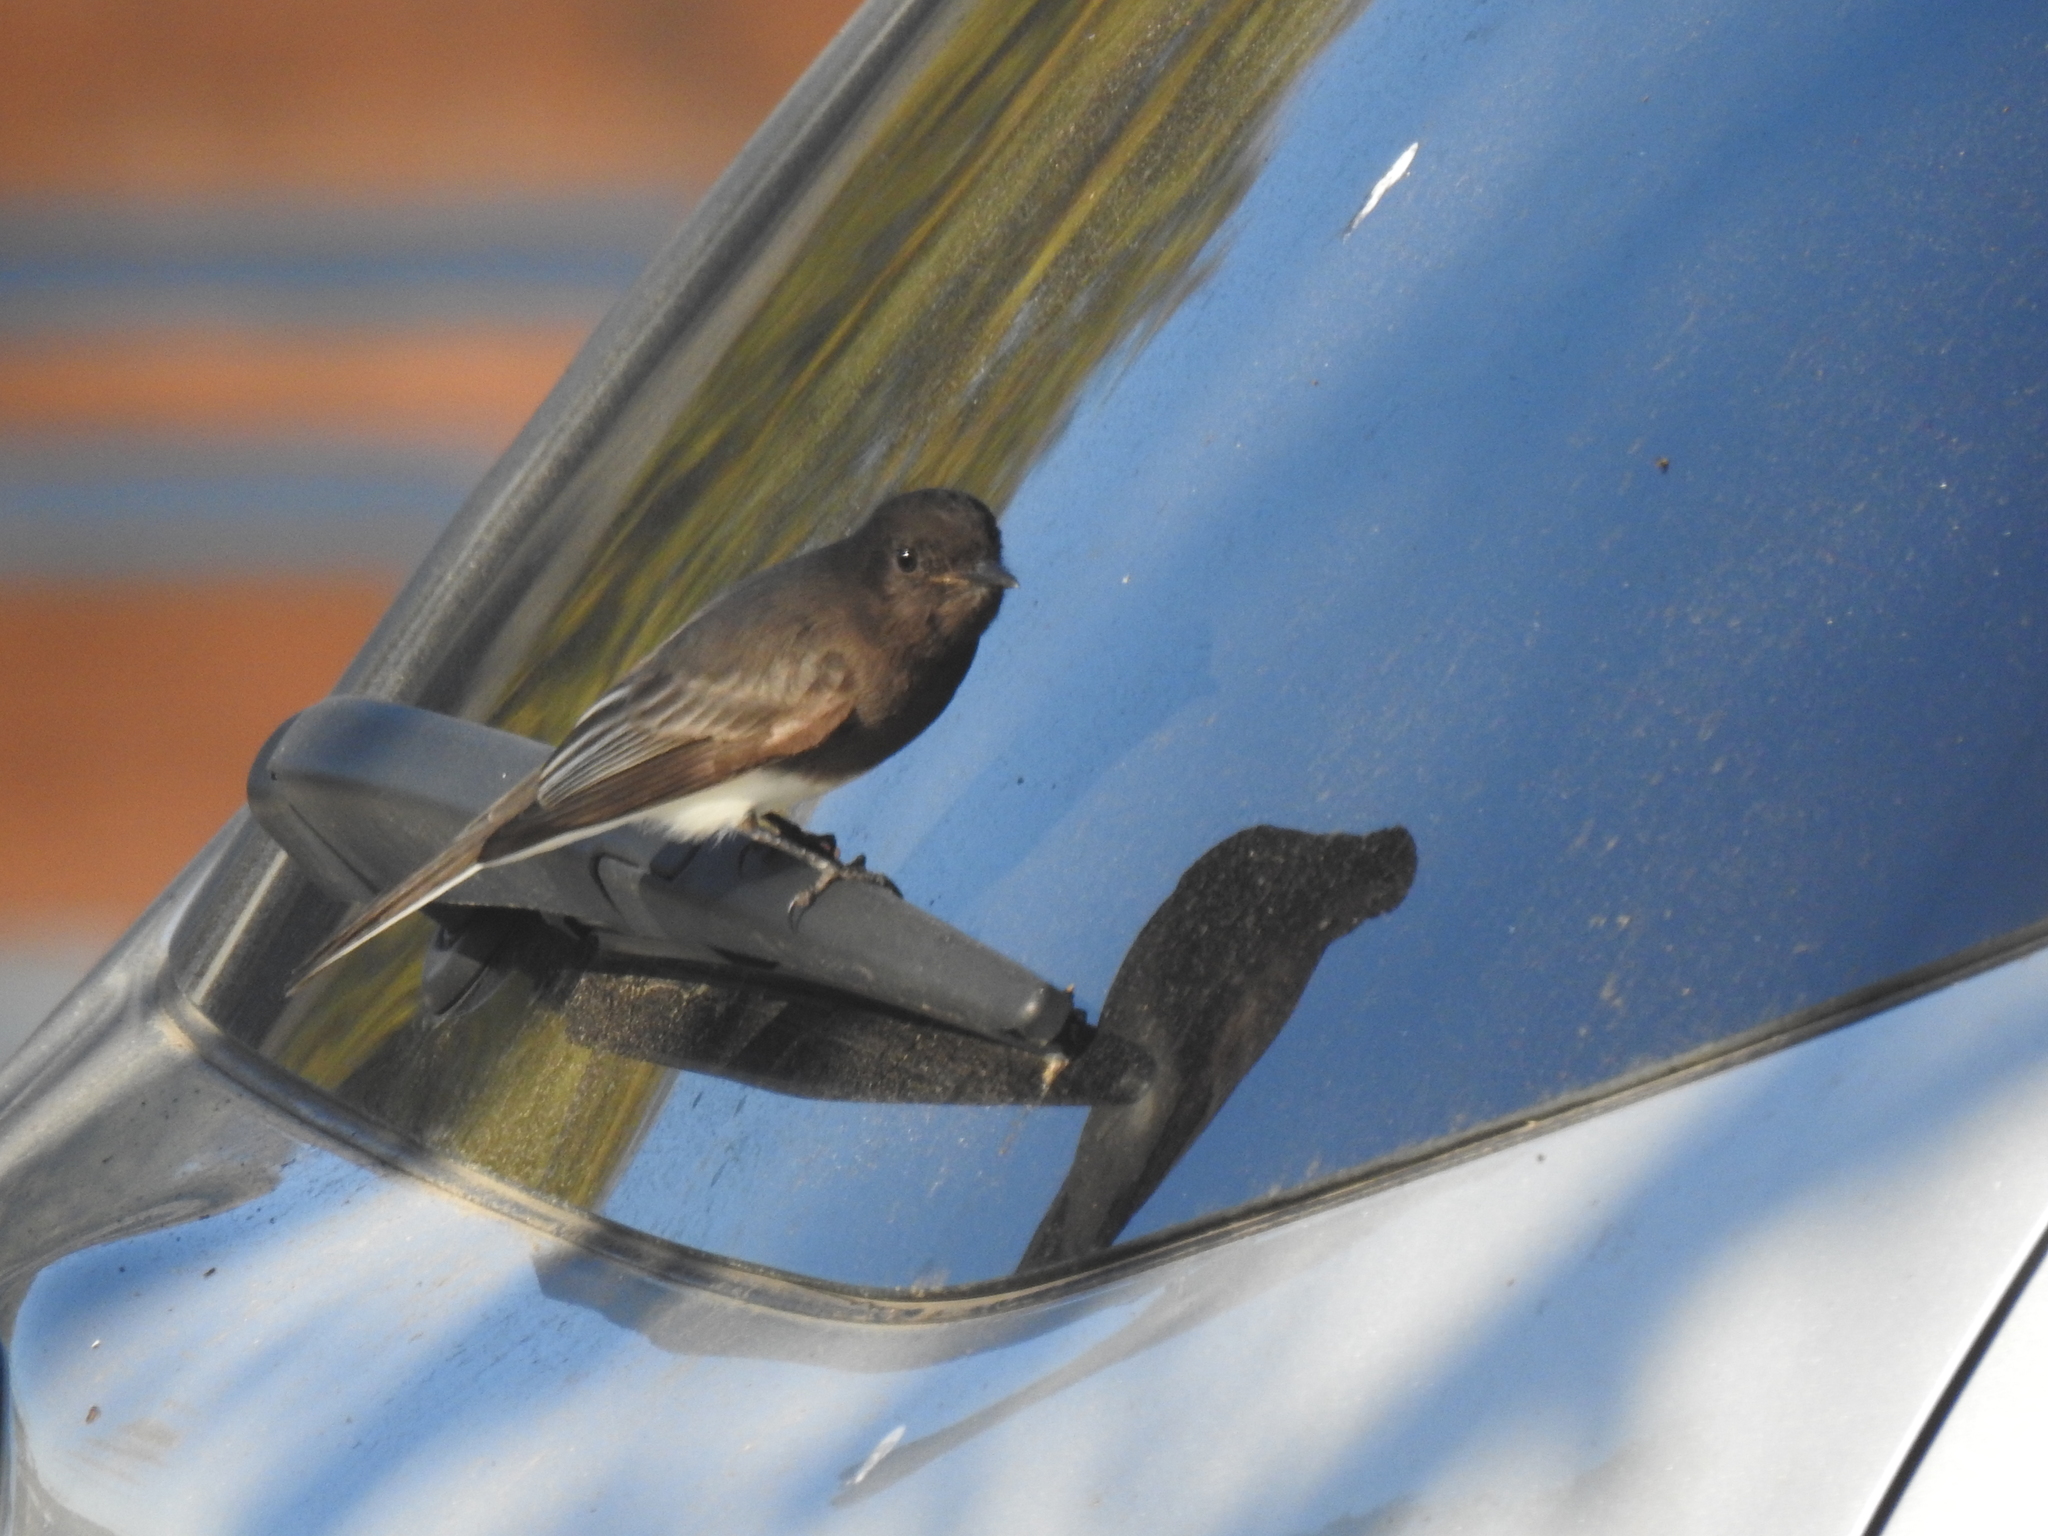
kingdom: Animalia
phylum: Chordata
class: Aves
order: Passeriformes
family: Tyrannidae
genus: Sayornis
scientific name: Sayornis nigricans
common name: Black phoebe
